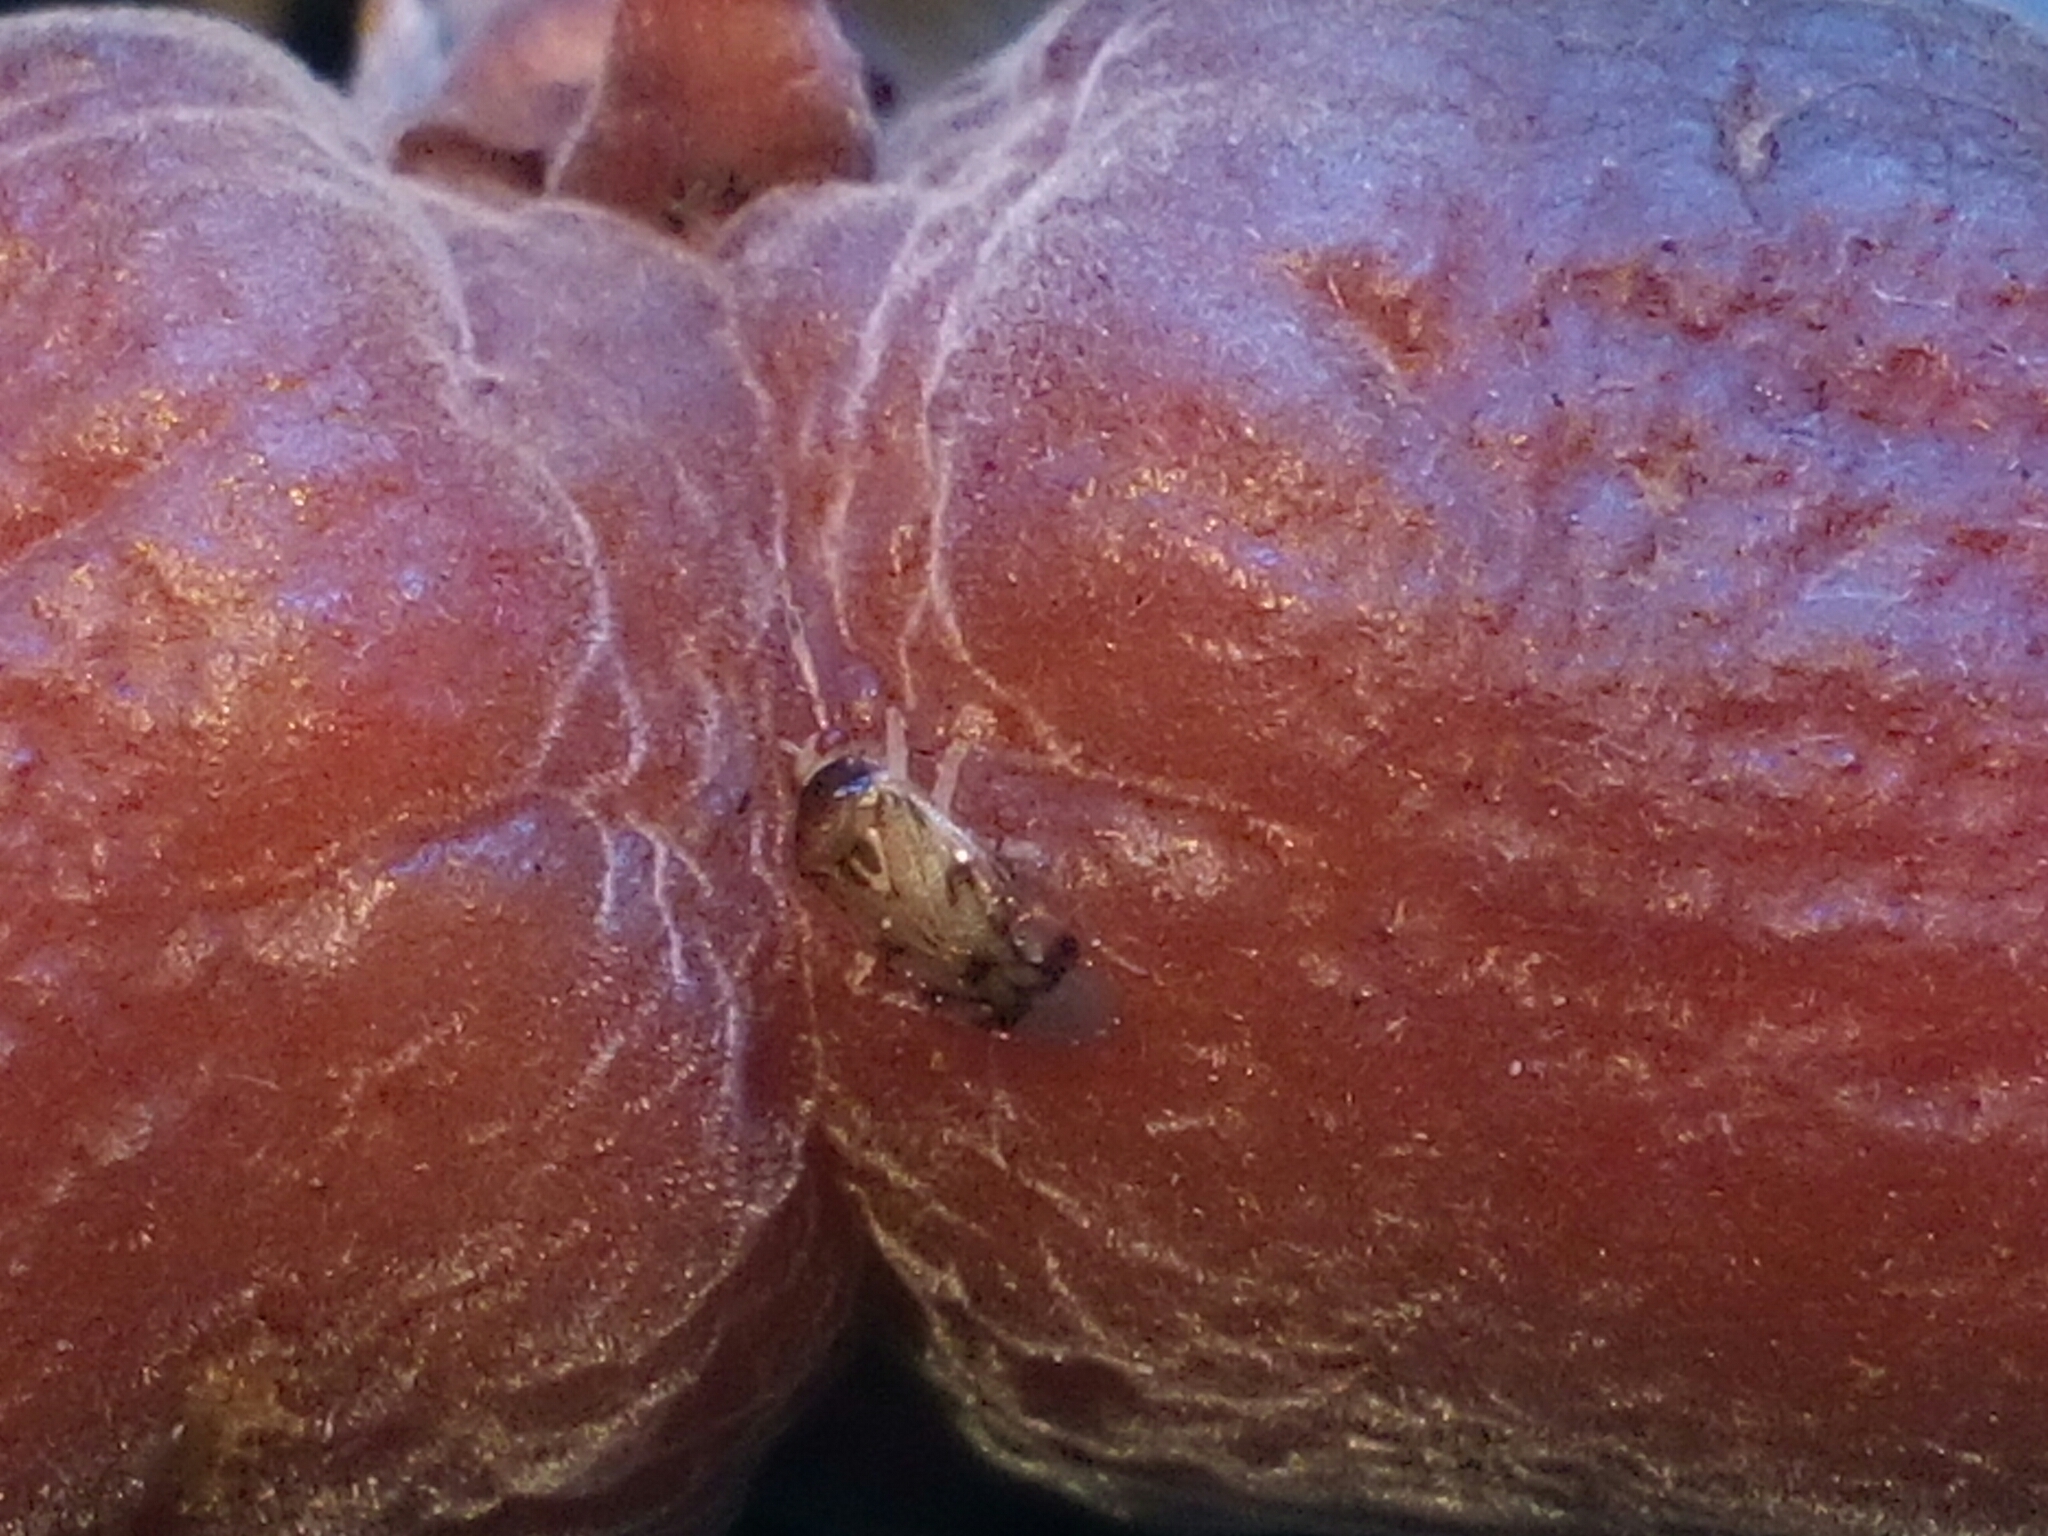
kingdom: Animalia
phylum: Arthropoda
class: Insecta
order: Hemiptera
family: Miridae
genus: Deraeocoris
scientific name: Deraeocoris lutescens
